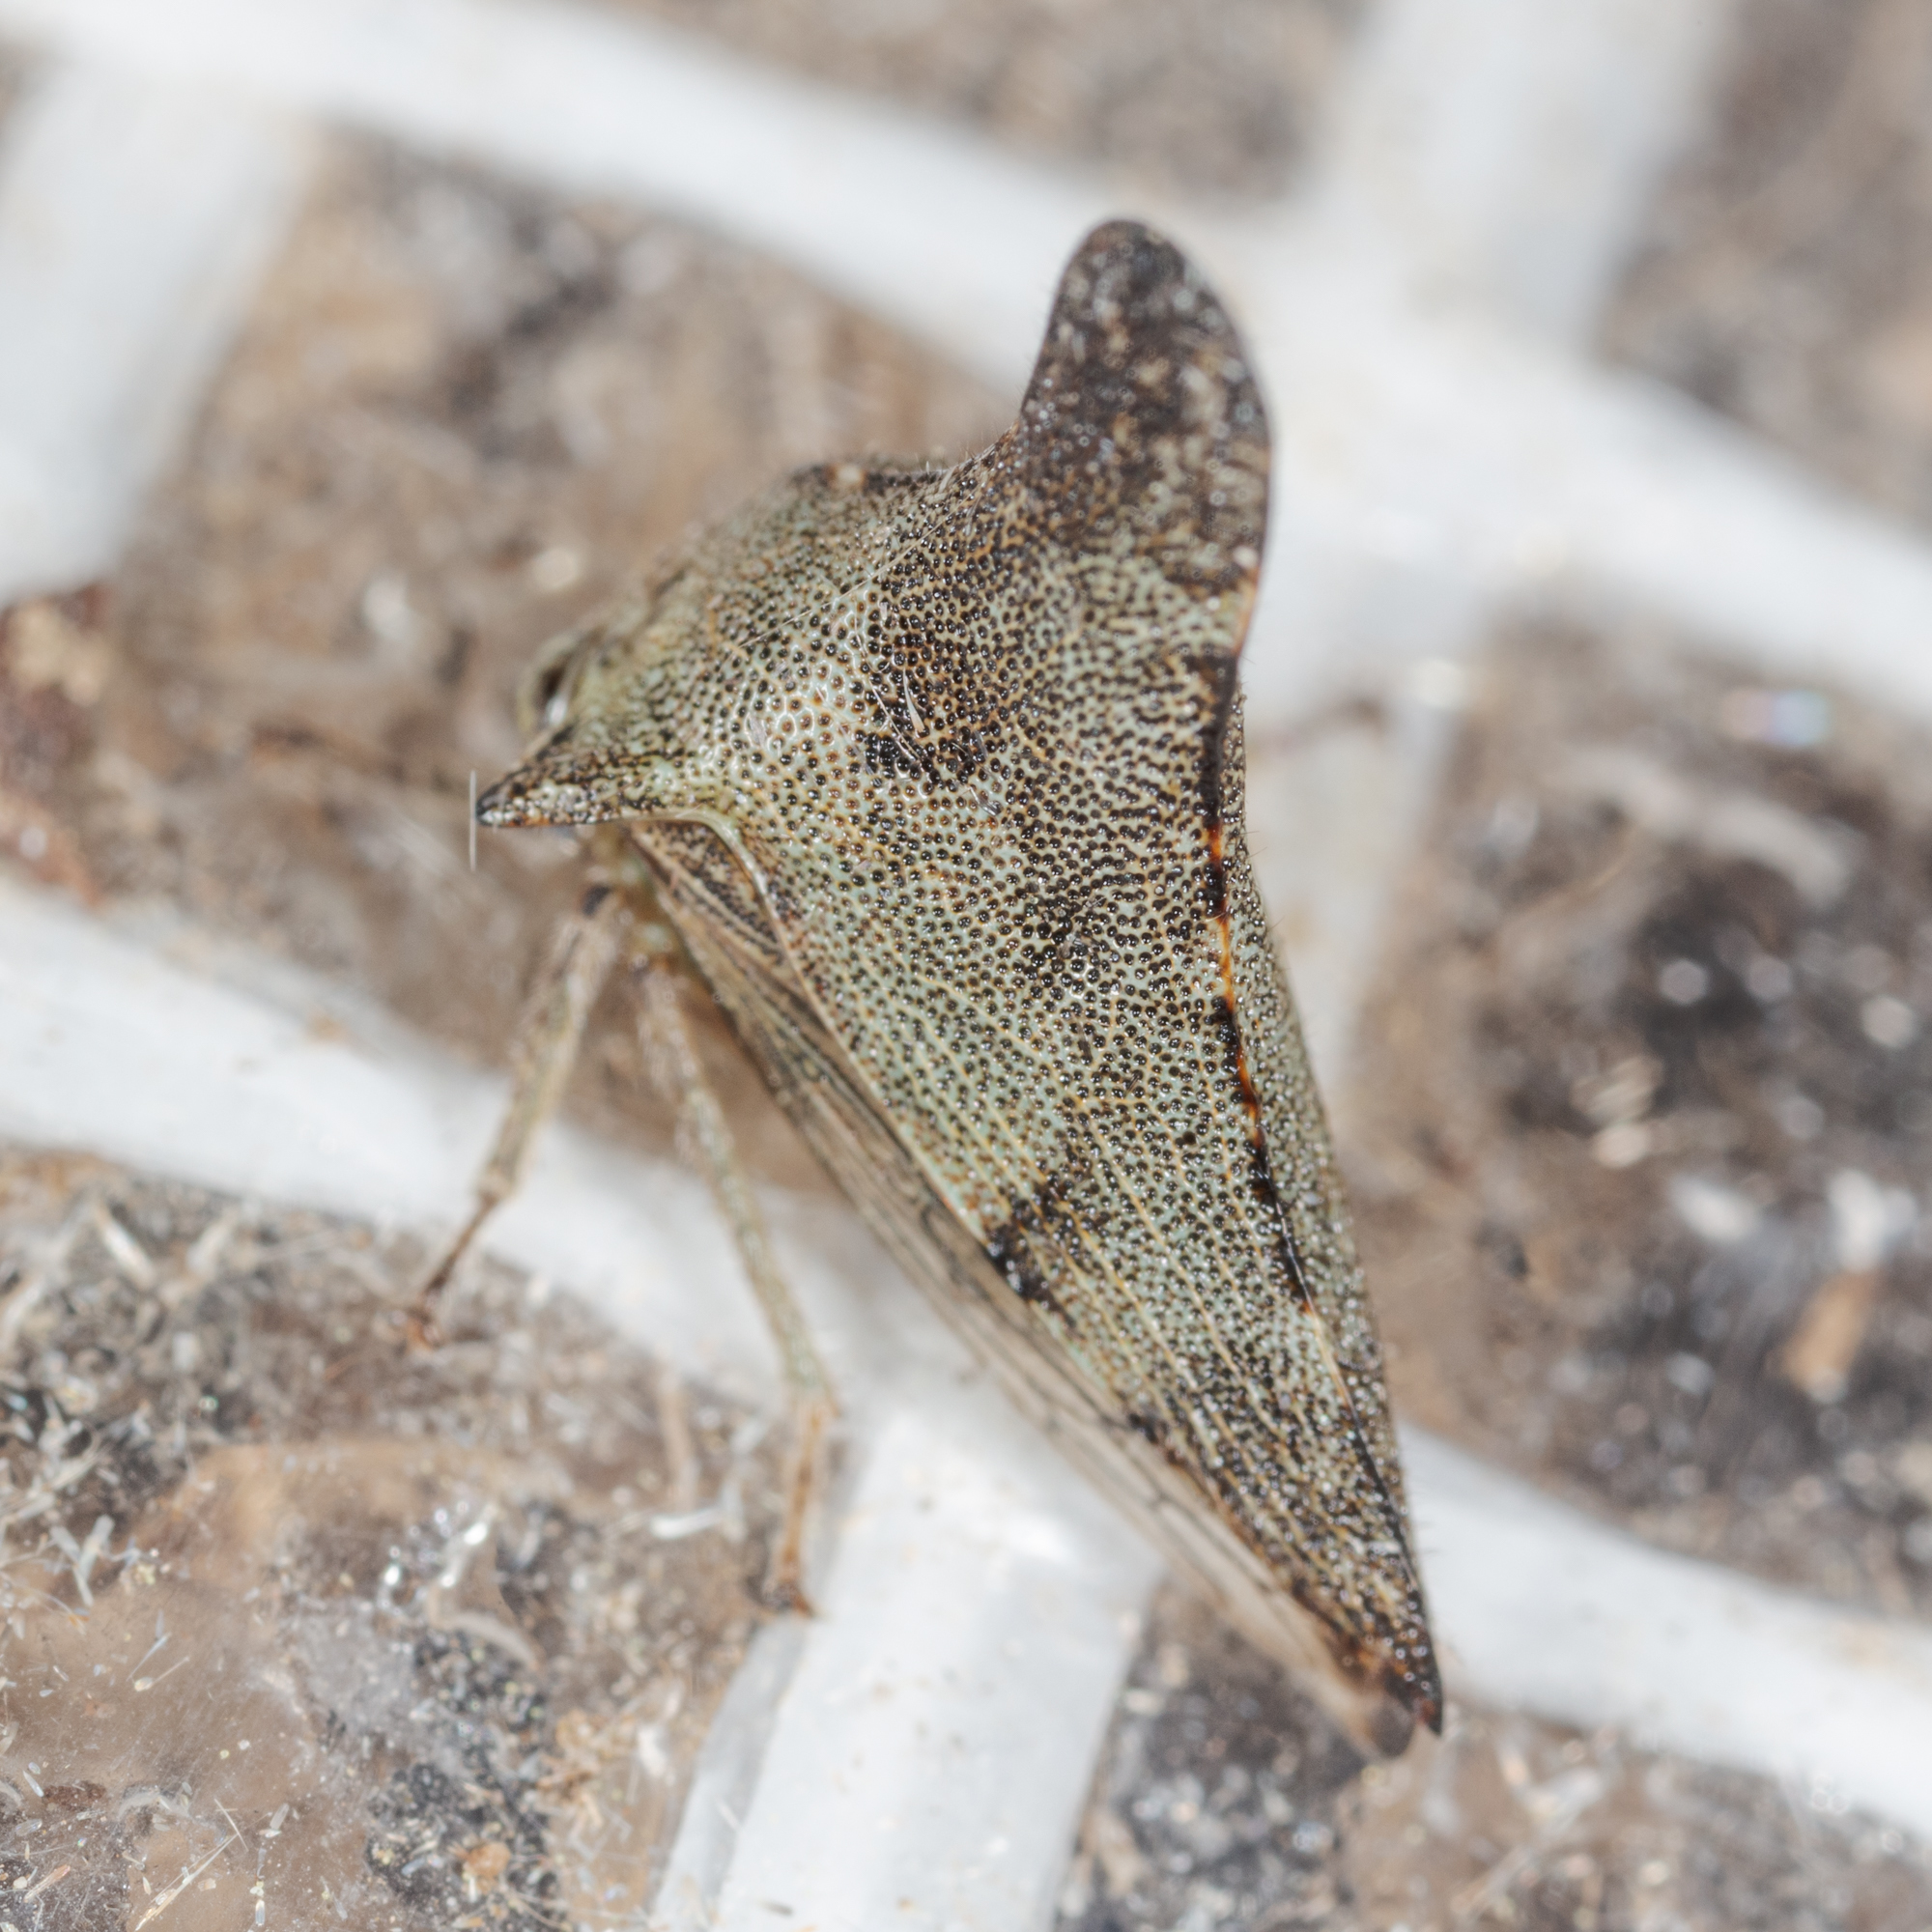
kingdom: Animalia
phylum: Arthropoda
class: Insecta
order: Hemiptera
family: Membracidae
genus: Glossonotus
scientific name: Glossonotus acuminata
